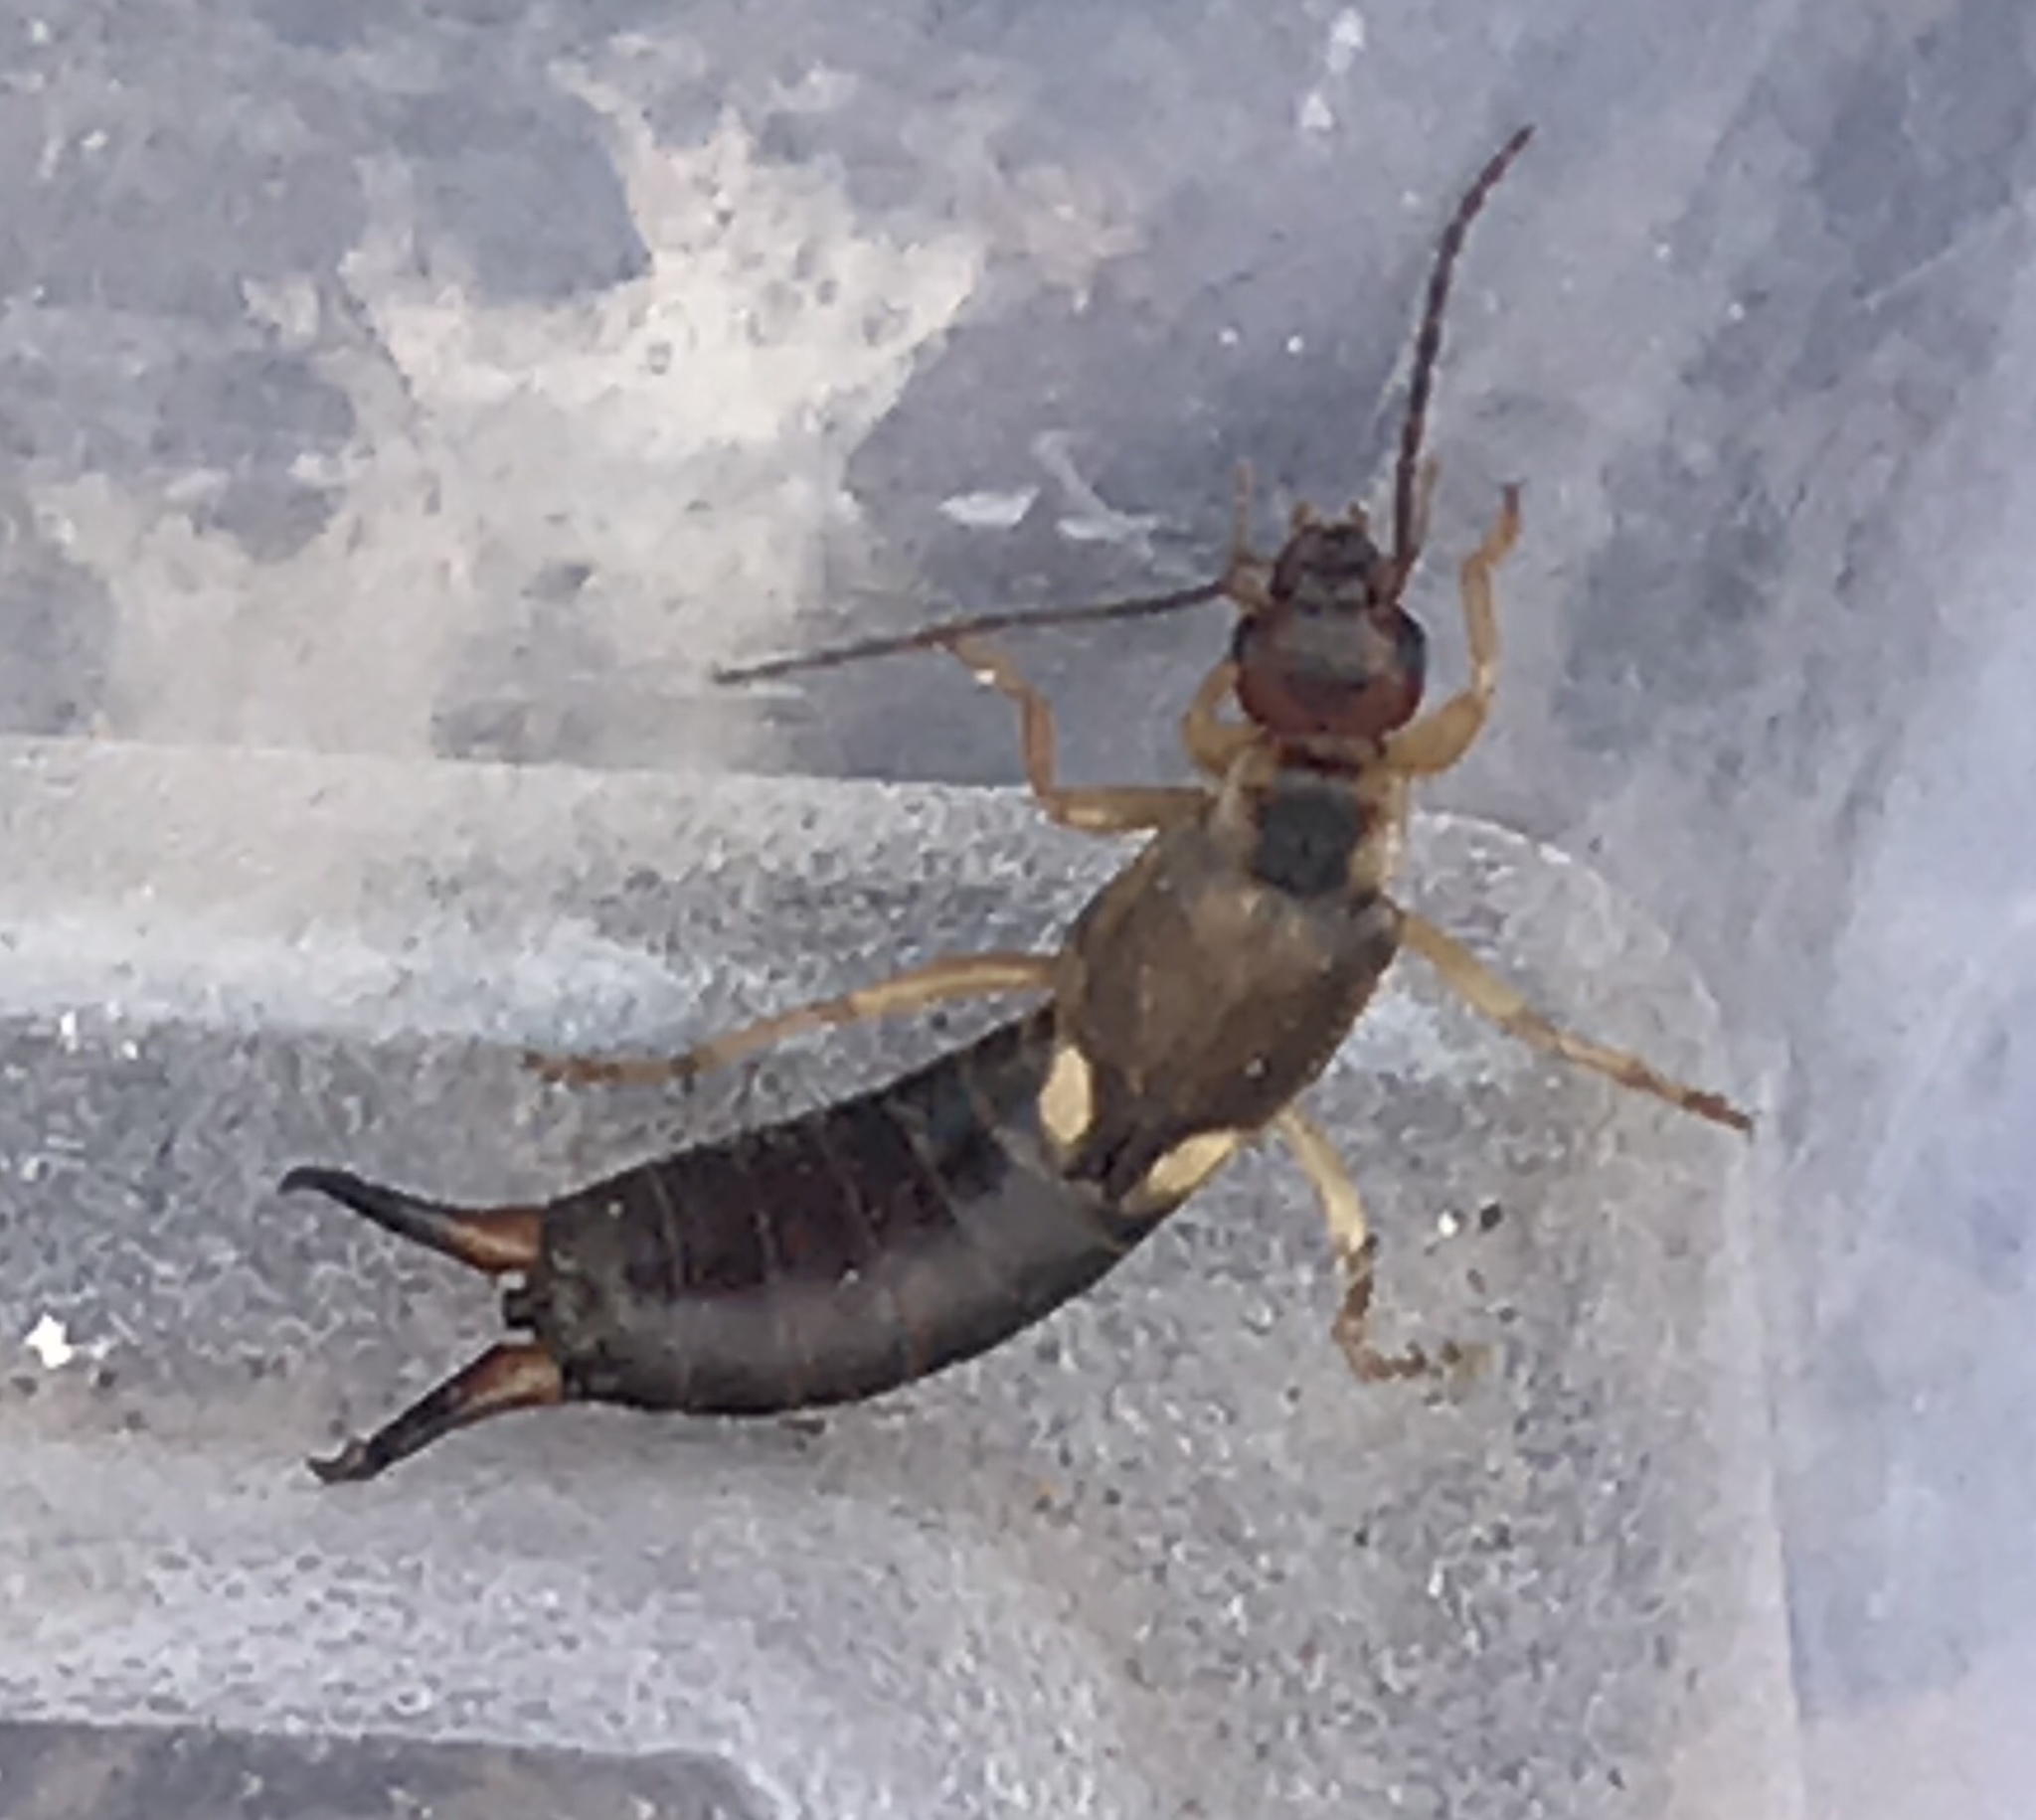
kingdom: Animalia
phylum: Arthropoda
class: Insecta
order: Dermaptera
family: Forficulidae
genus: Forficula
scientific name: Forficula
